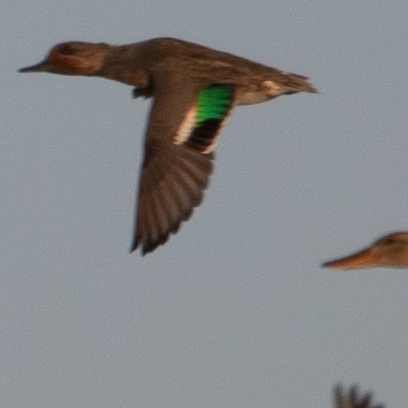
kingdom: Animalia
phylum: Chordata
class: Aves
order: Anseriformes
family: Anatidae
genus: Anas
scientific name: Anas crecca
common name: Eurasian teal
